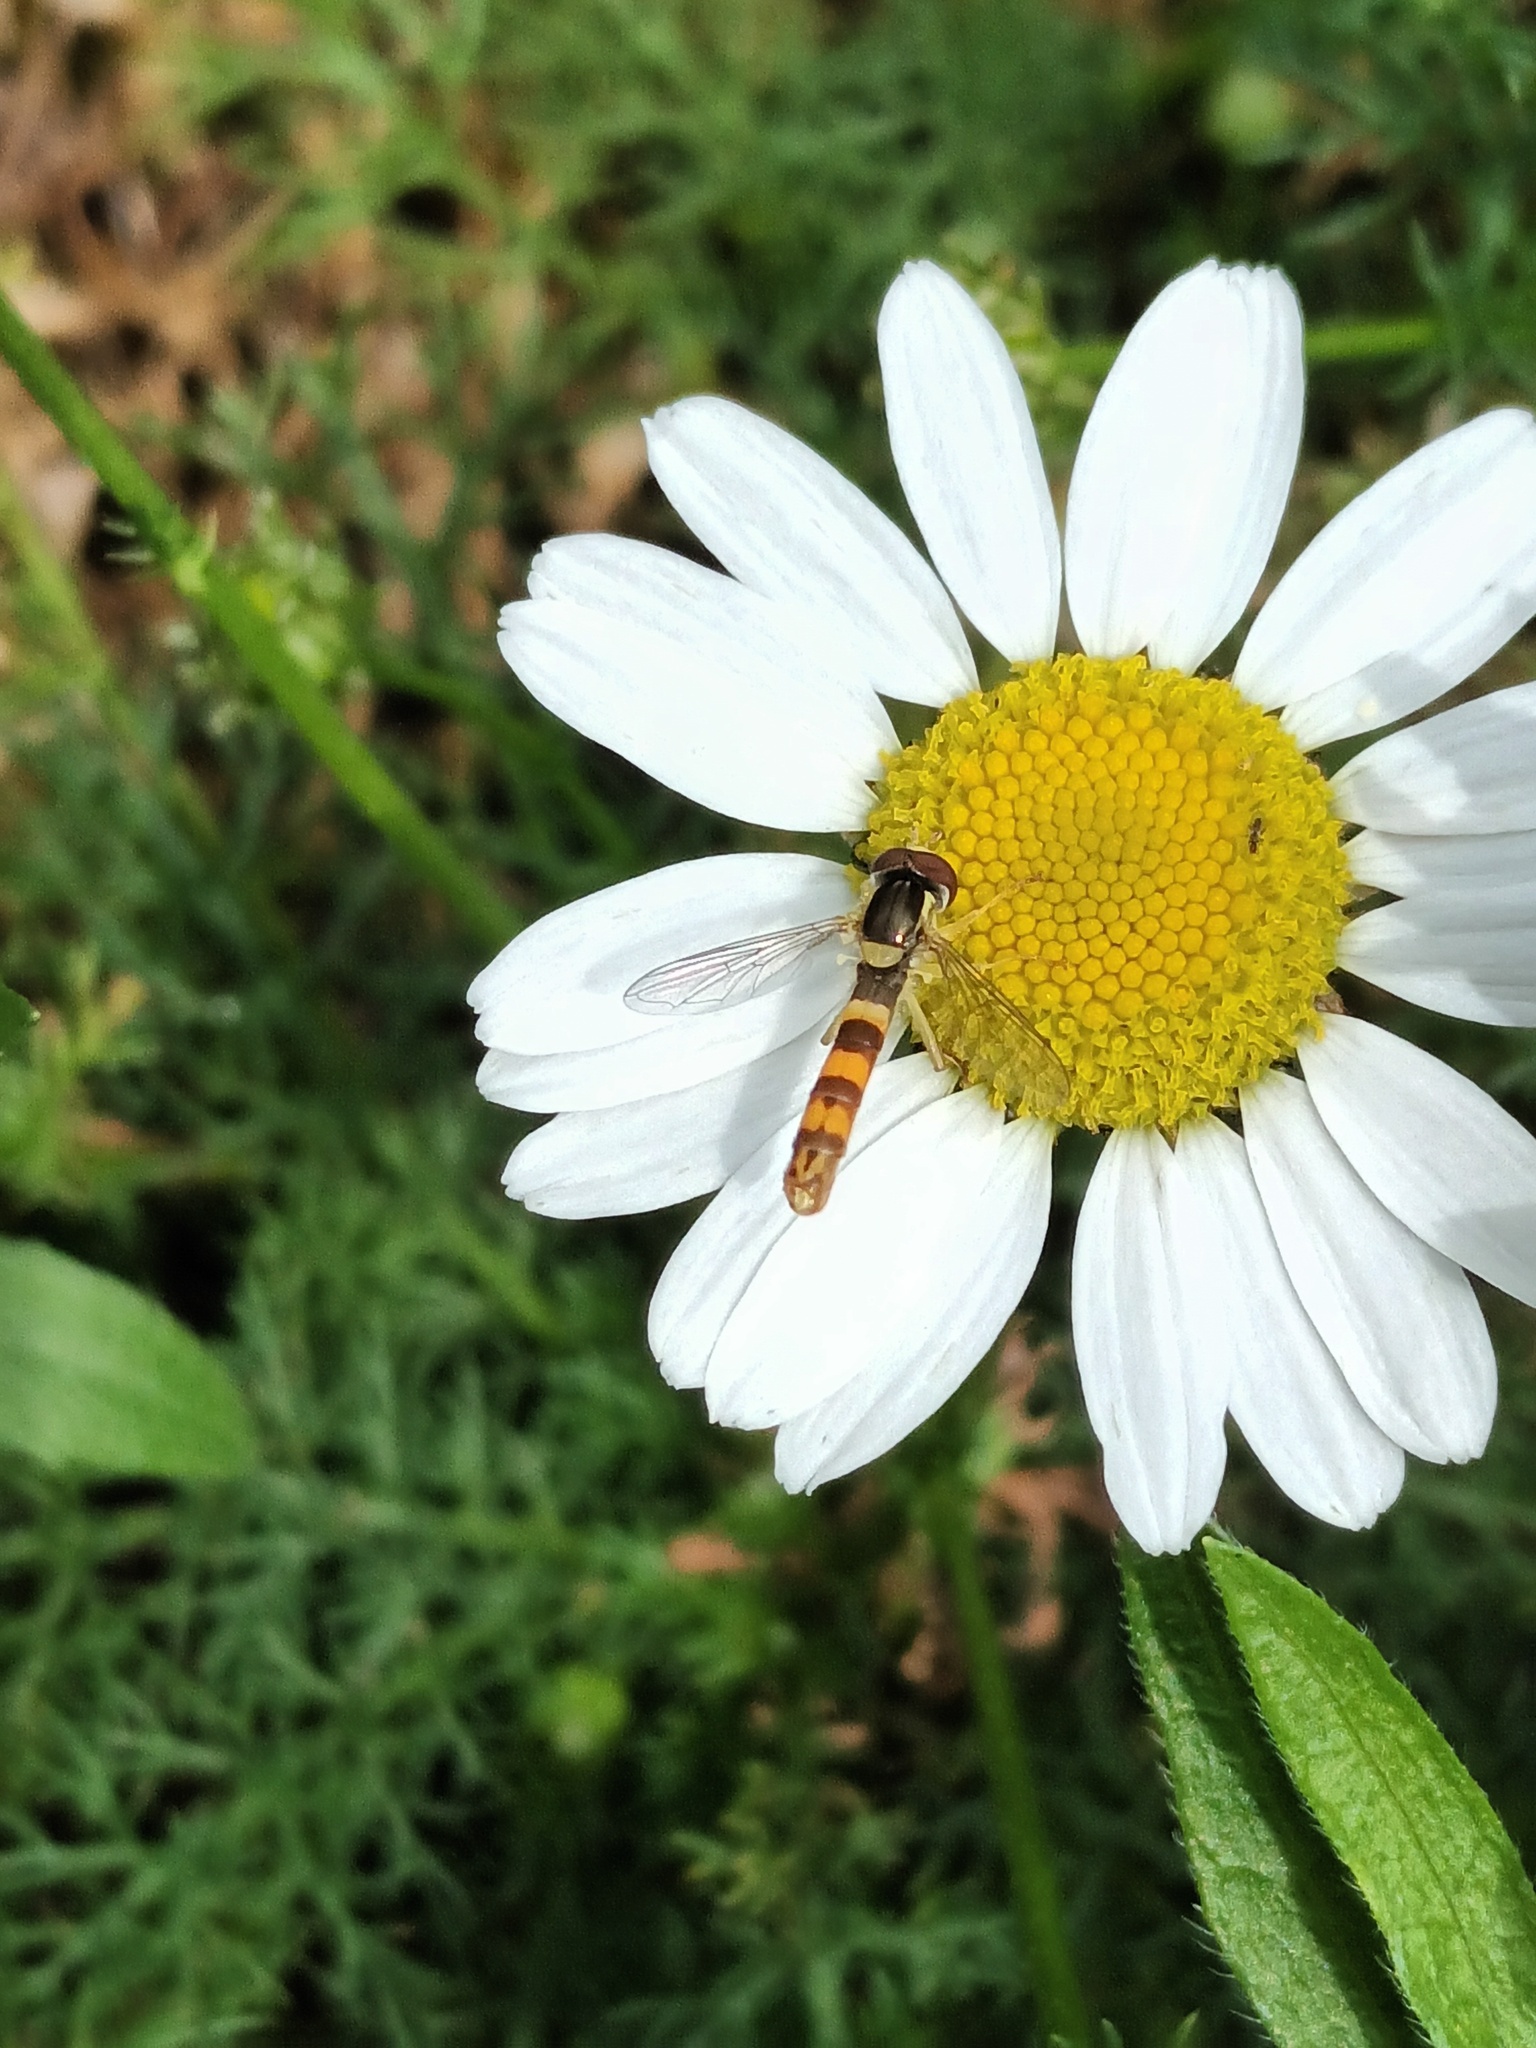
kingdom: Animalia
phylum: Arthropoda
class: Insecta
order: Diptera
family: Syrphidae
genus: Sphaerophoria
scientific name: Sphaerophoria scripta
